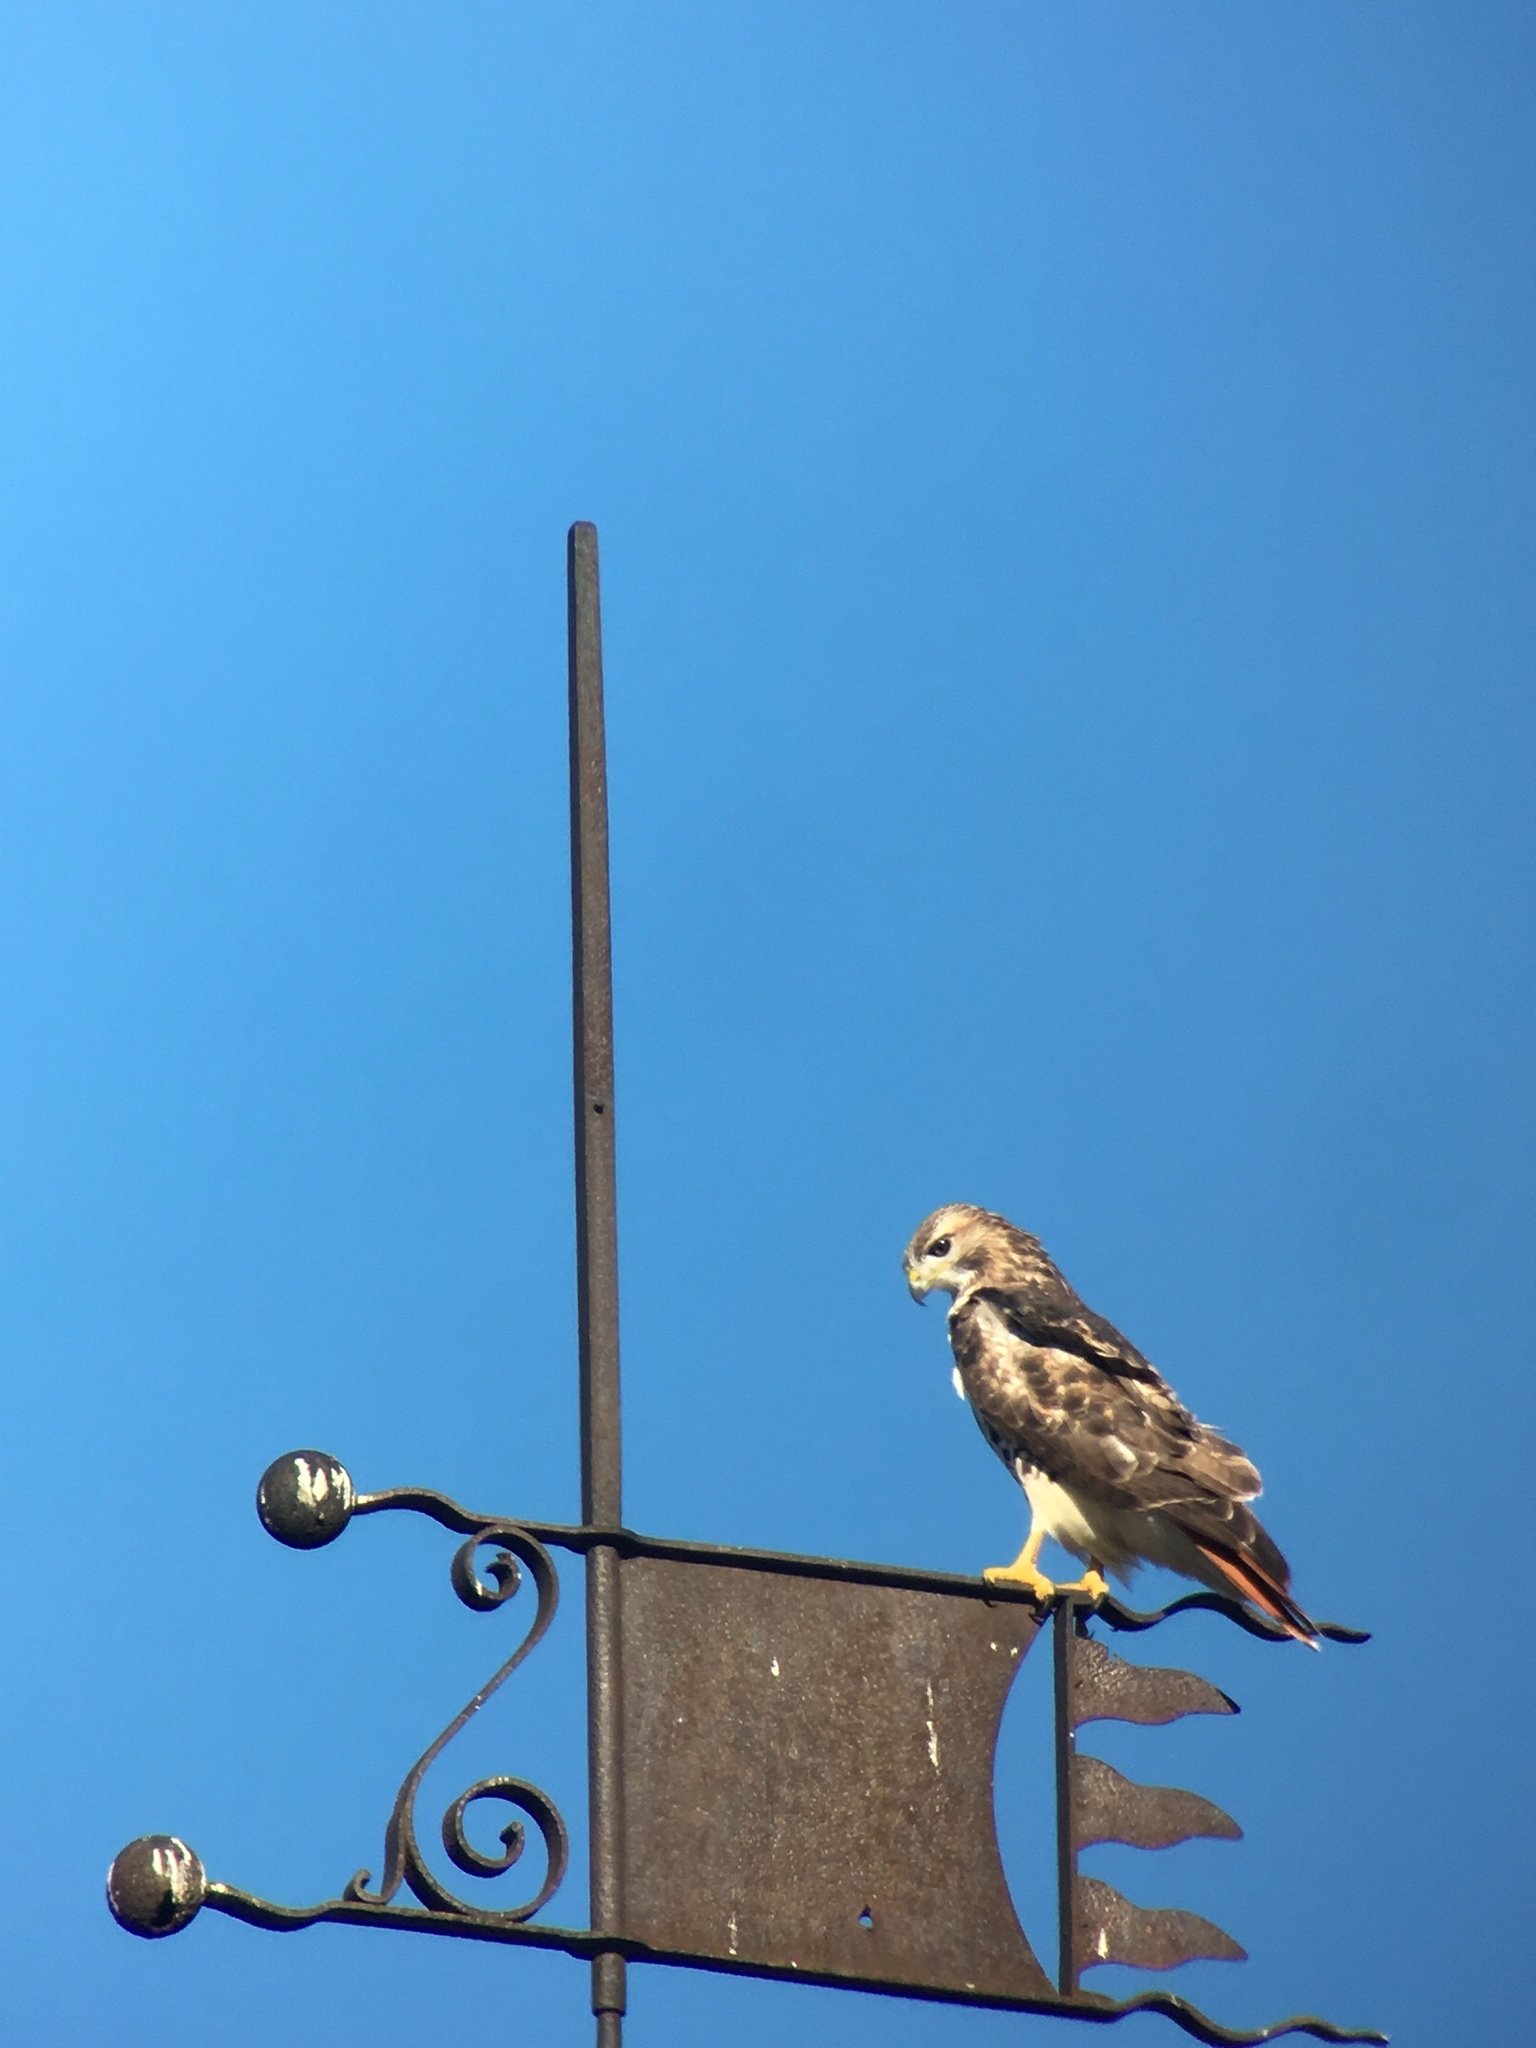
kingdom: Animalia
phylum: Chordata
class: Aves
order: Accipitriformes
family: Accipitridae
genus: Buteo
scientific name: Buteo jamaicensis
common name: Red-tailed hawk
